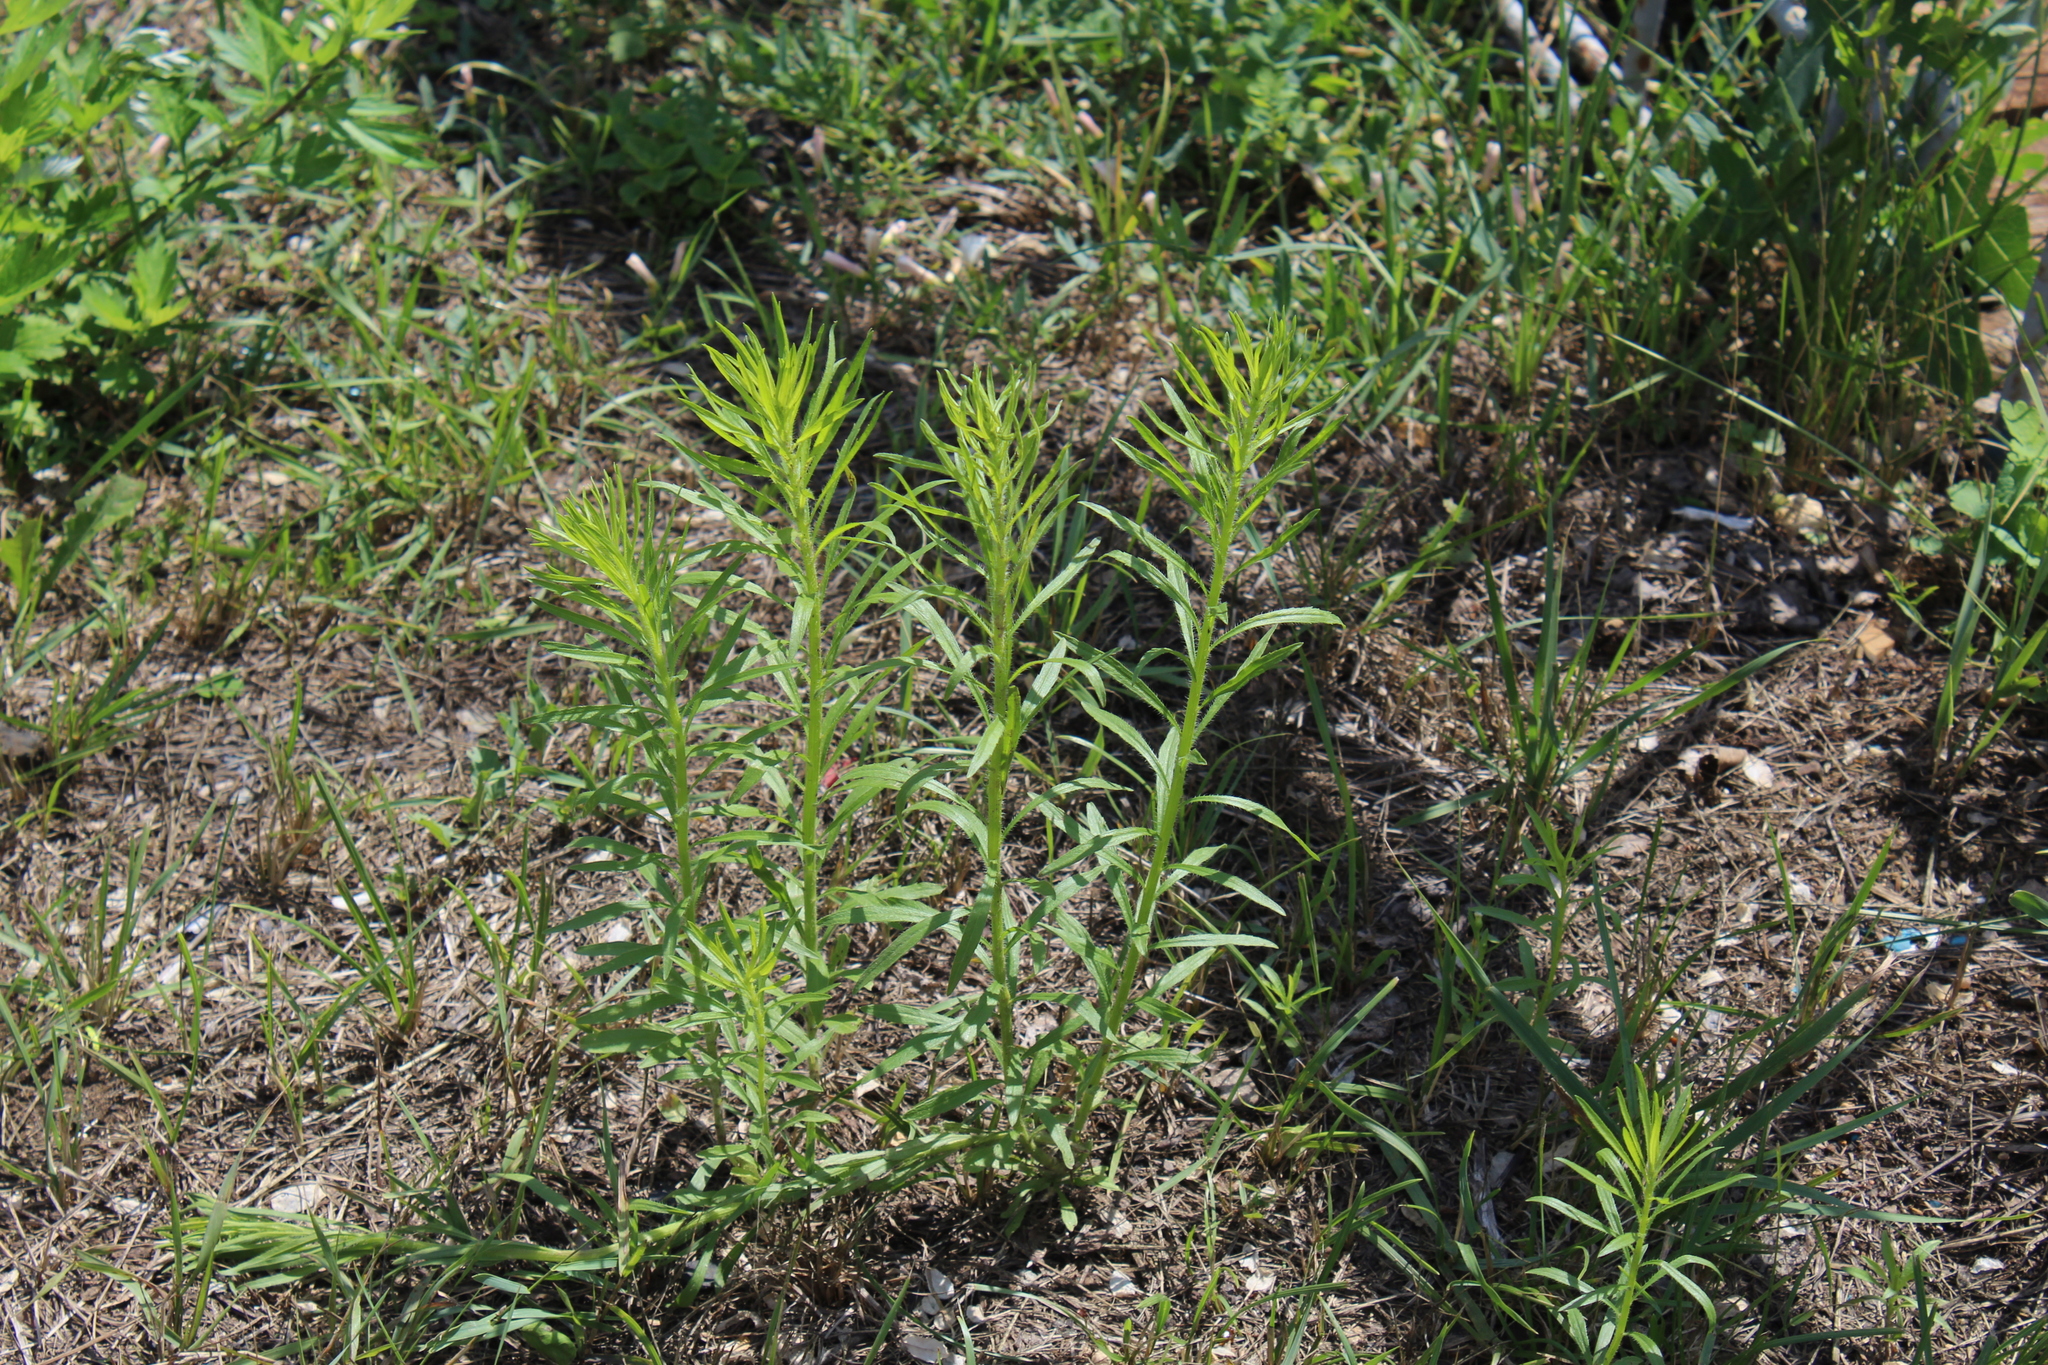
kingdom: Plantae
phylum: Tracheophyta
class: Magnoliopsida
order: Asterales
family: Asteraceae
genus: Erigeron
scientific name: Erigeron canadensis
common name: Canadian fleabane
